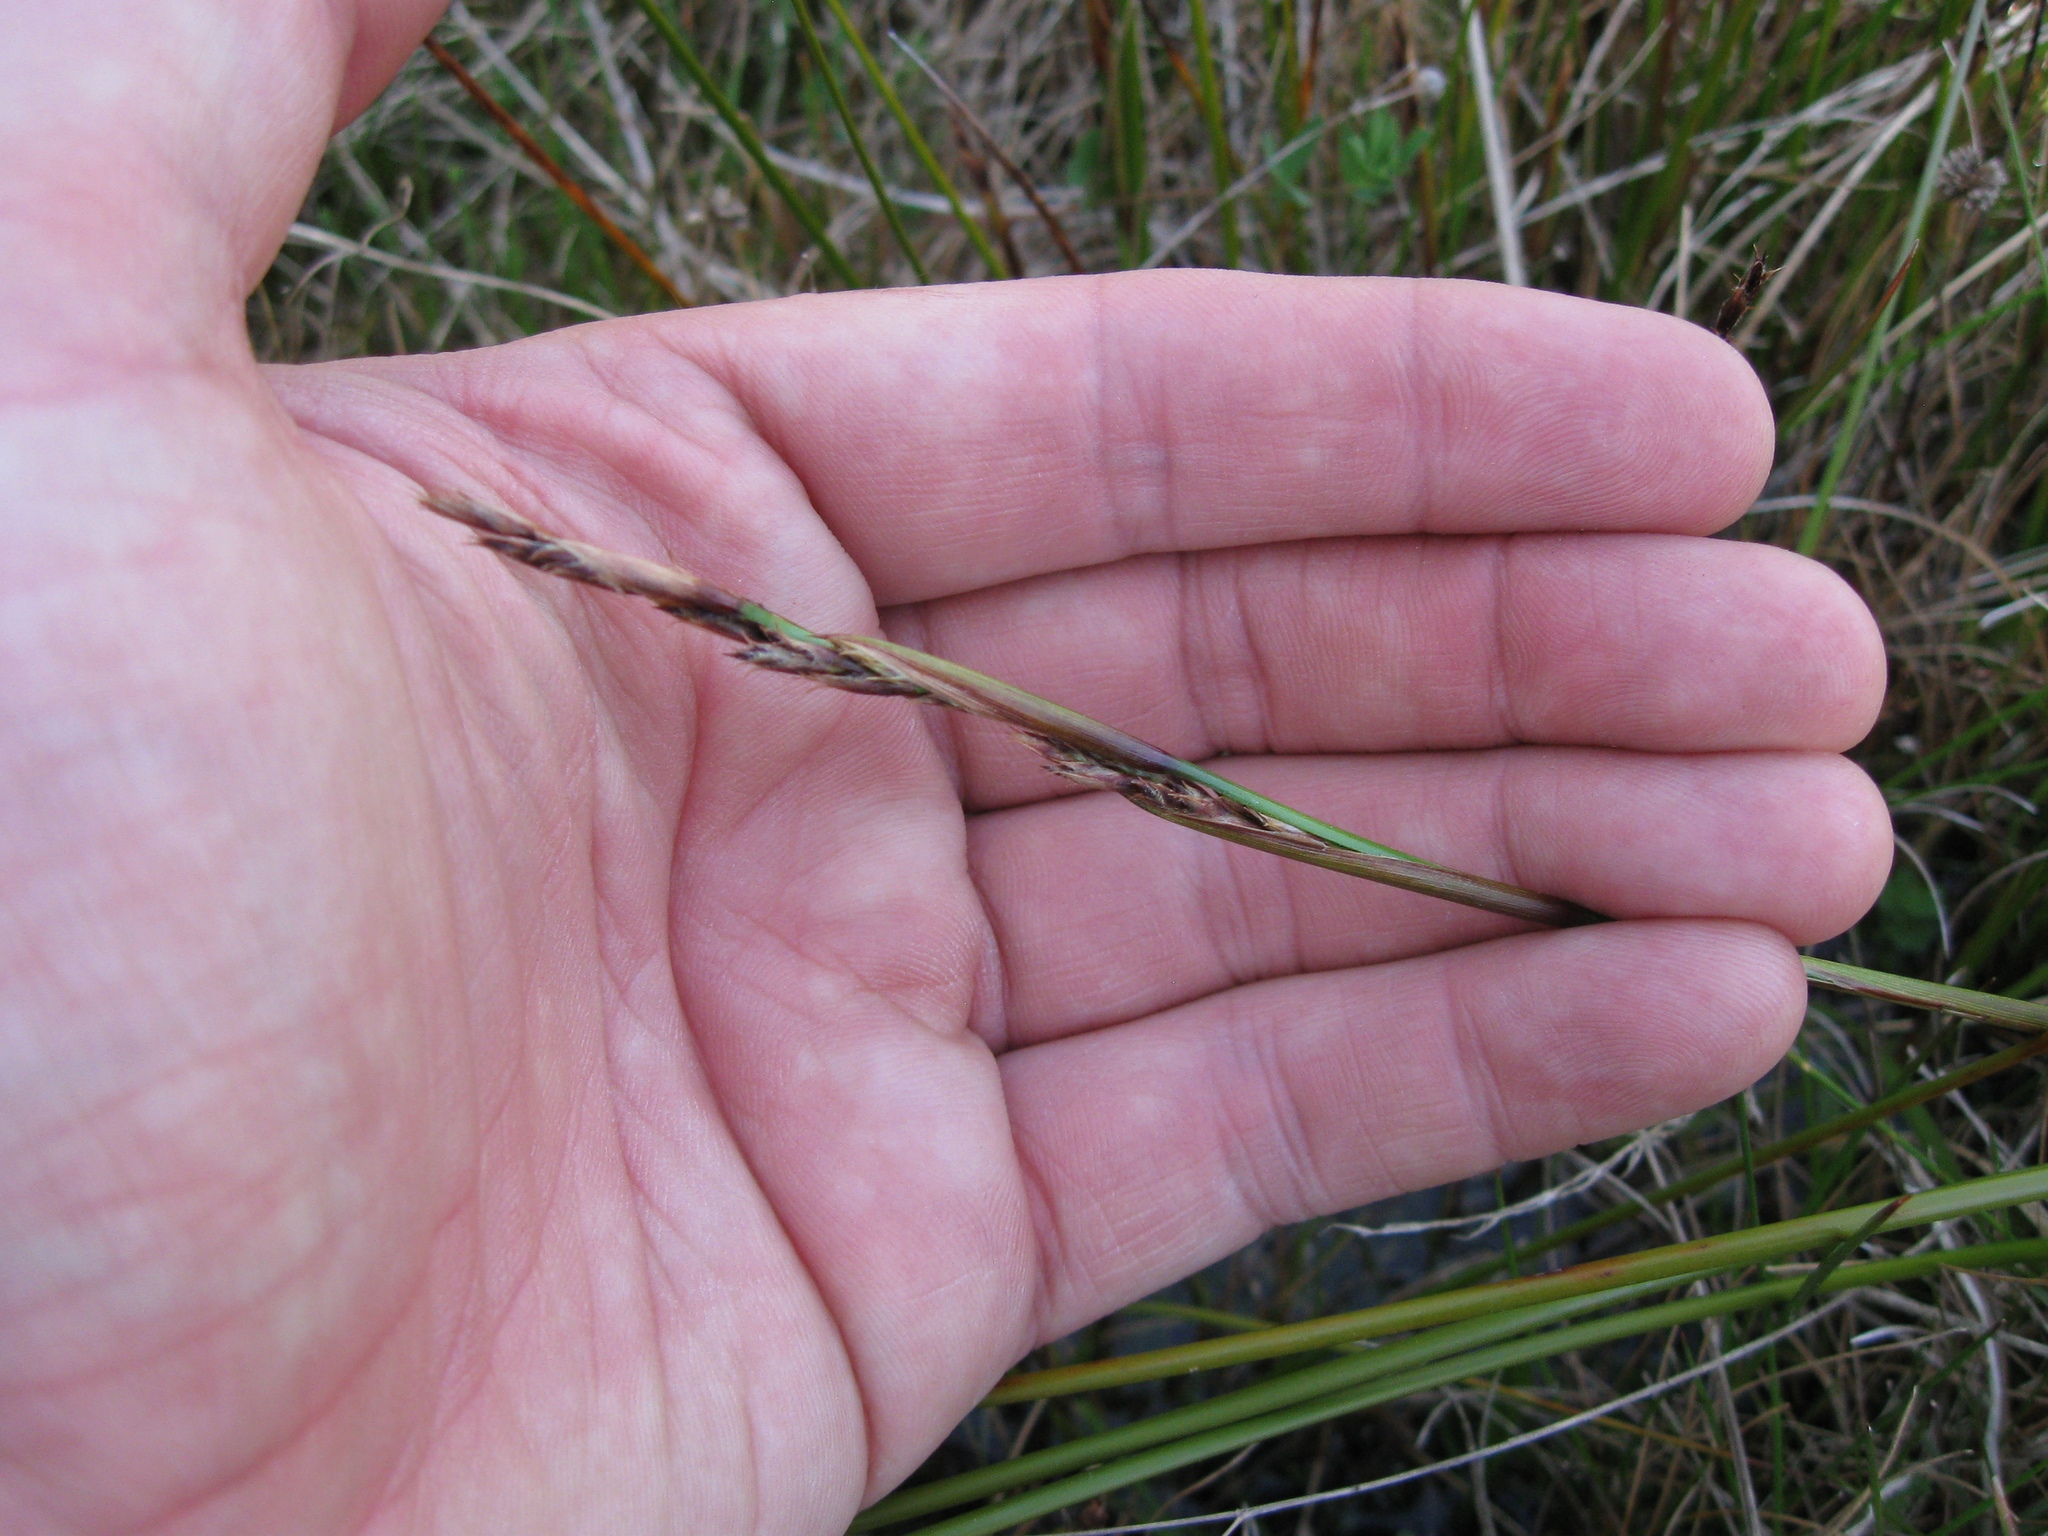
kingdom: Plantae
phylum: Tracheophyta
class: Liliopsida
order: Poales
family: Cyperaceae
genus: Machaerina
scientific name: Machaerina rubiginosa
